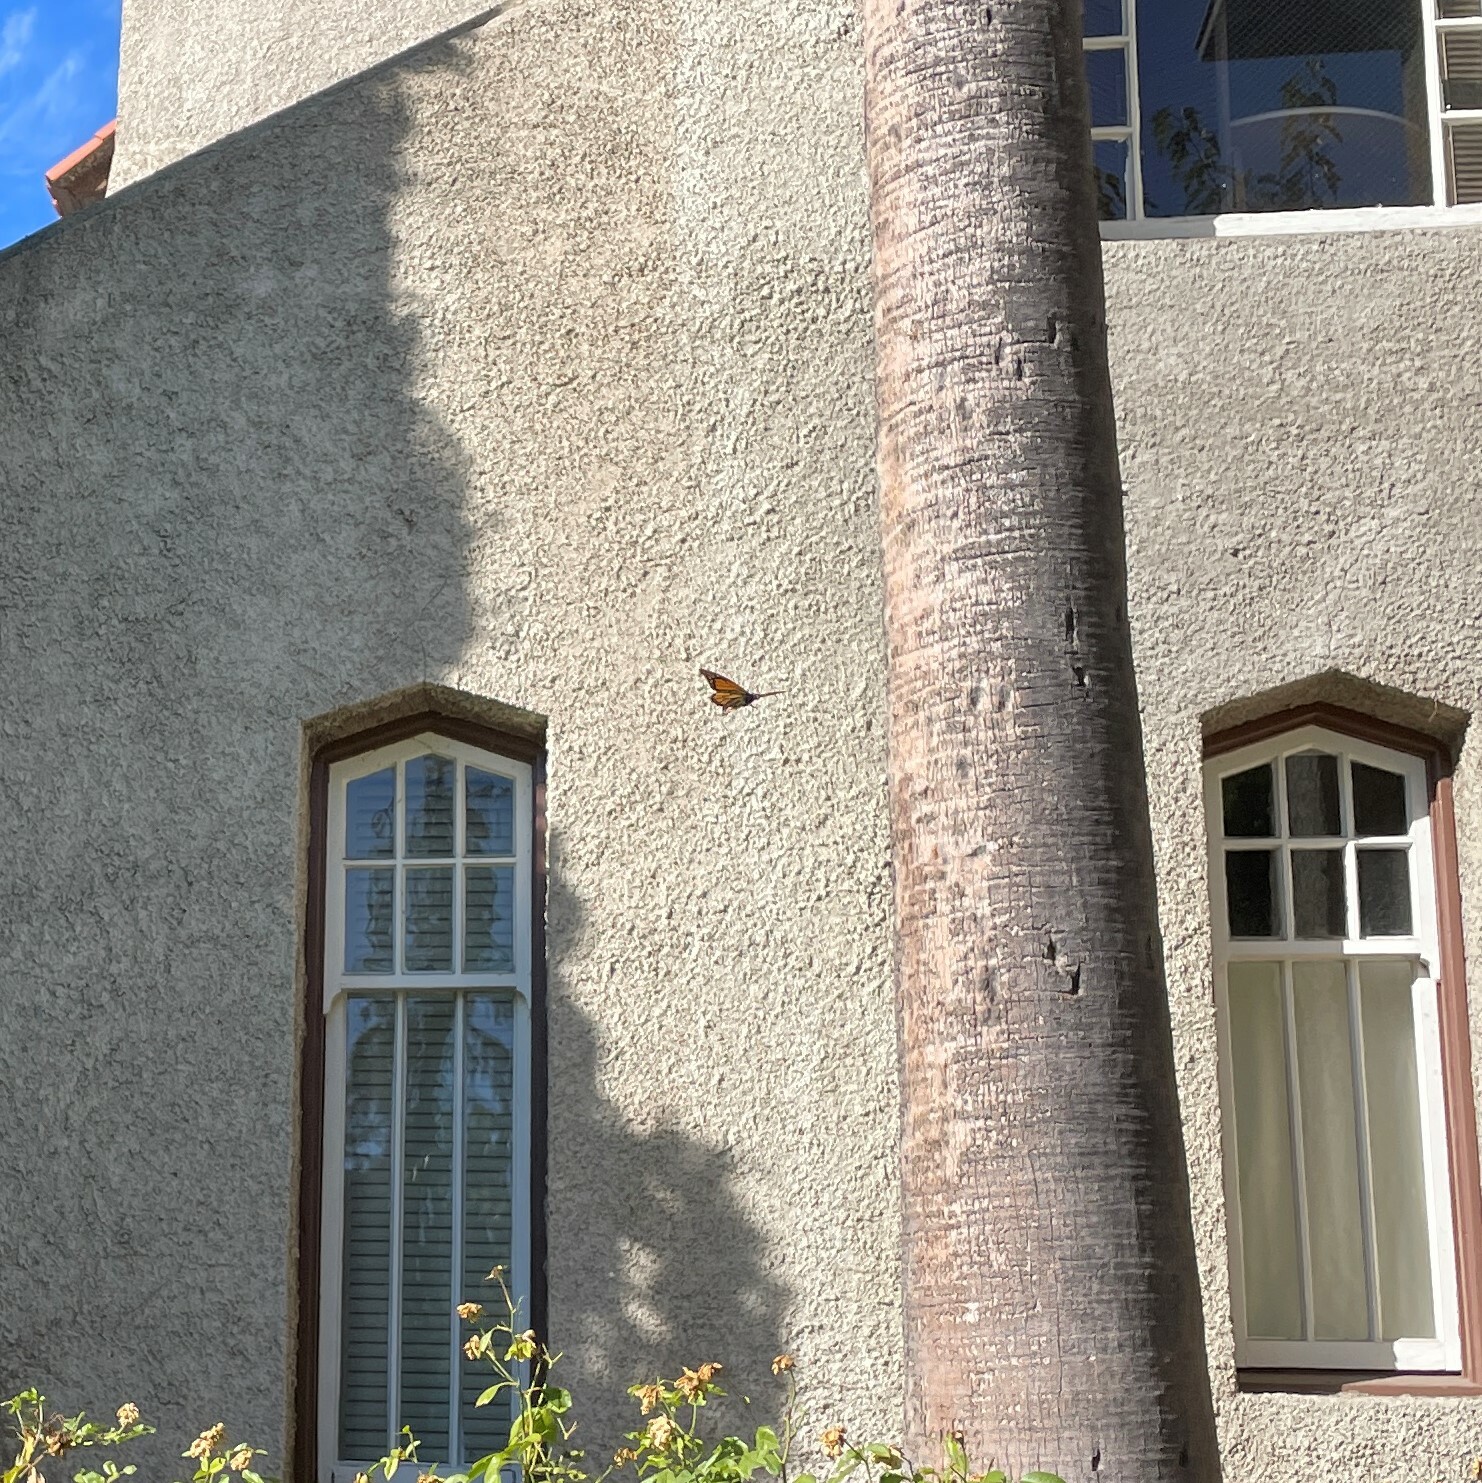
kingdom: Animalia
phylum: Arthropoda
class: Insecta
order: Lepidoptera
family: Nymphalidae
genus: Danaus
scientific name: Danaus plexippus
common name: Monarch
